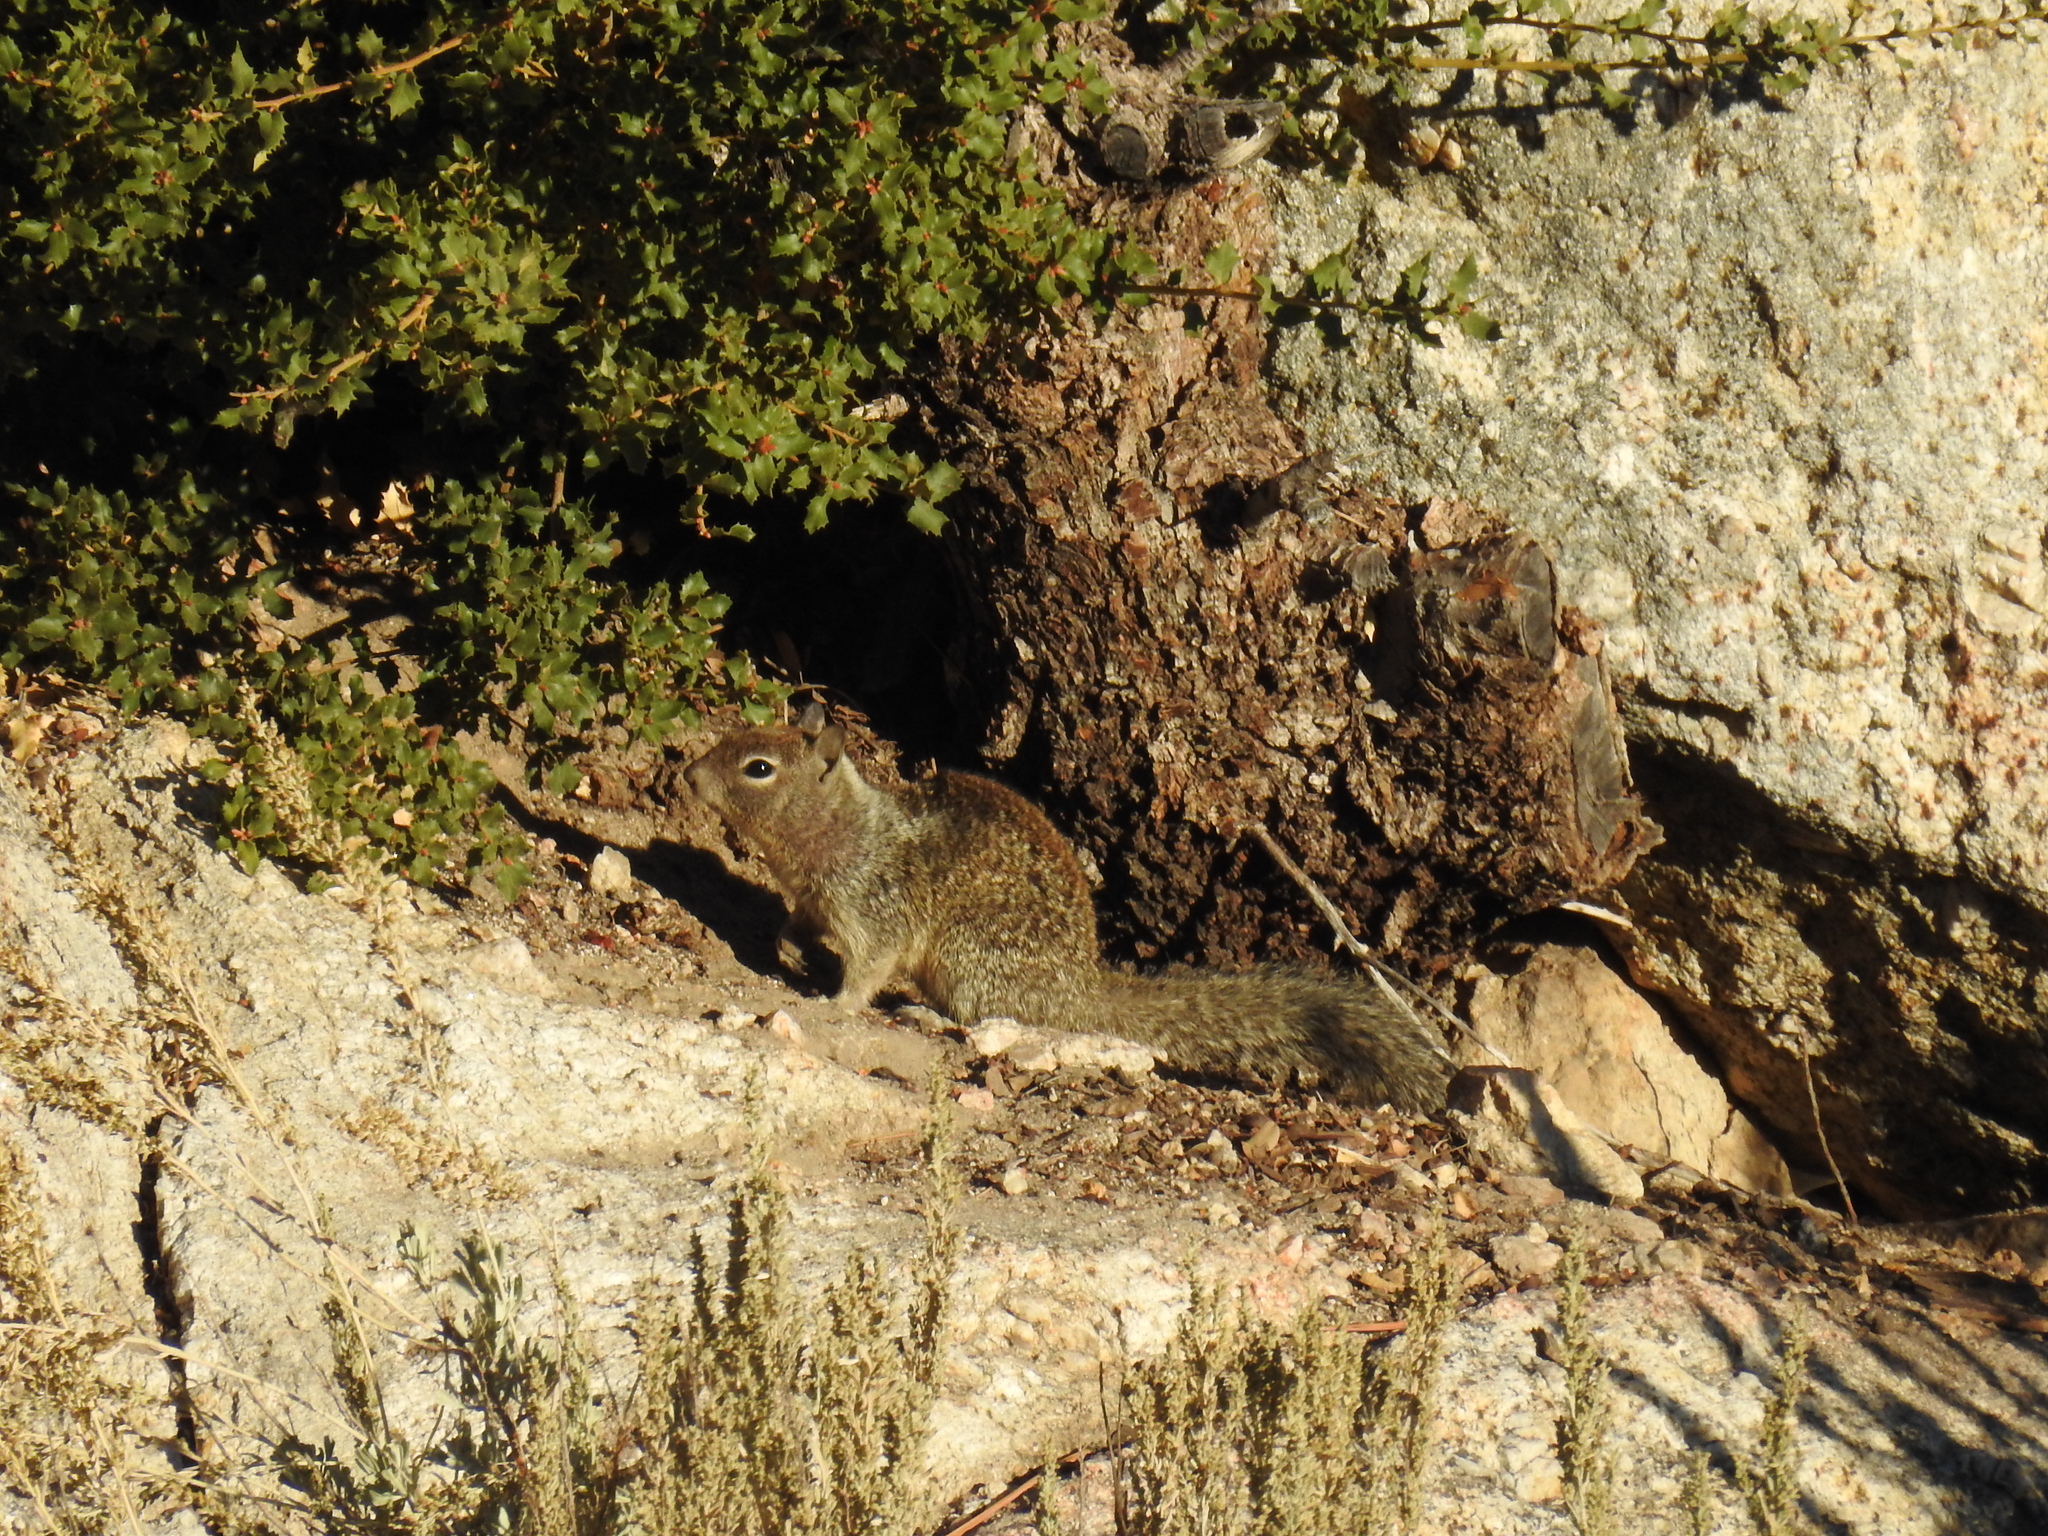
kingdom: Animalia
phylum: Chordata
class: Mammalia
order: Rodentia
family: Sciuridae
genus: Otospermophilus
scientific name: Otospermophilus beecheyi
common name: California ground squirrel
